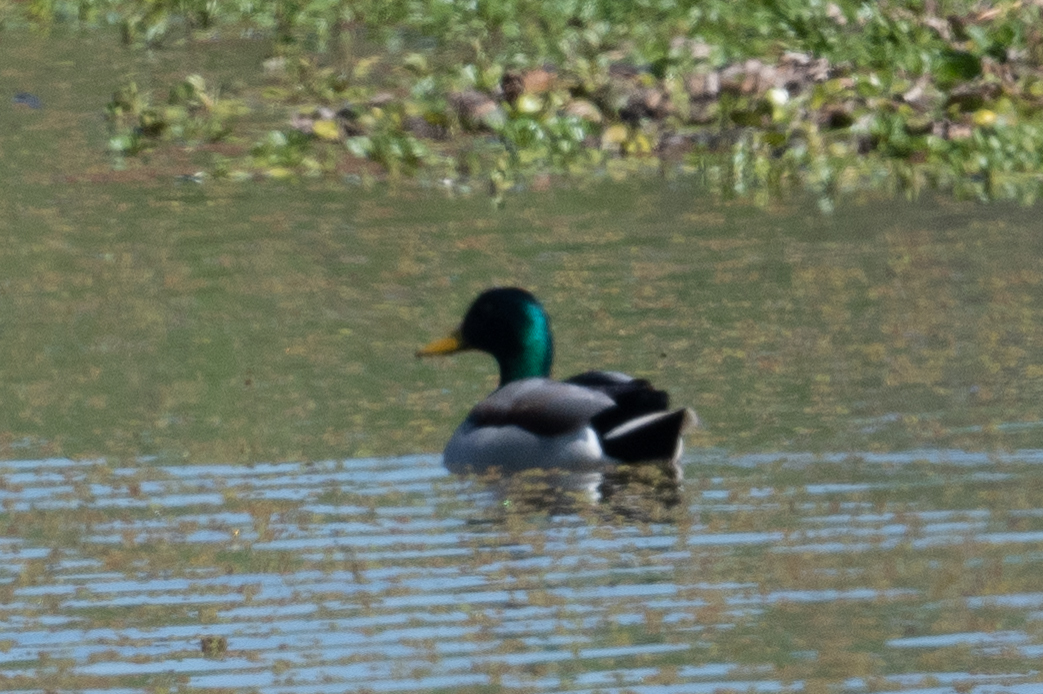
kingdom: Animalia
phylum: Chordata
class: Aves
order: Anseriformes
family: Anatidae
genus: Anas
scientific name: Anas platyrhynchos
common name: Mallard
